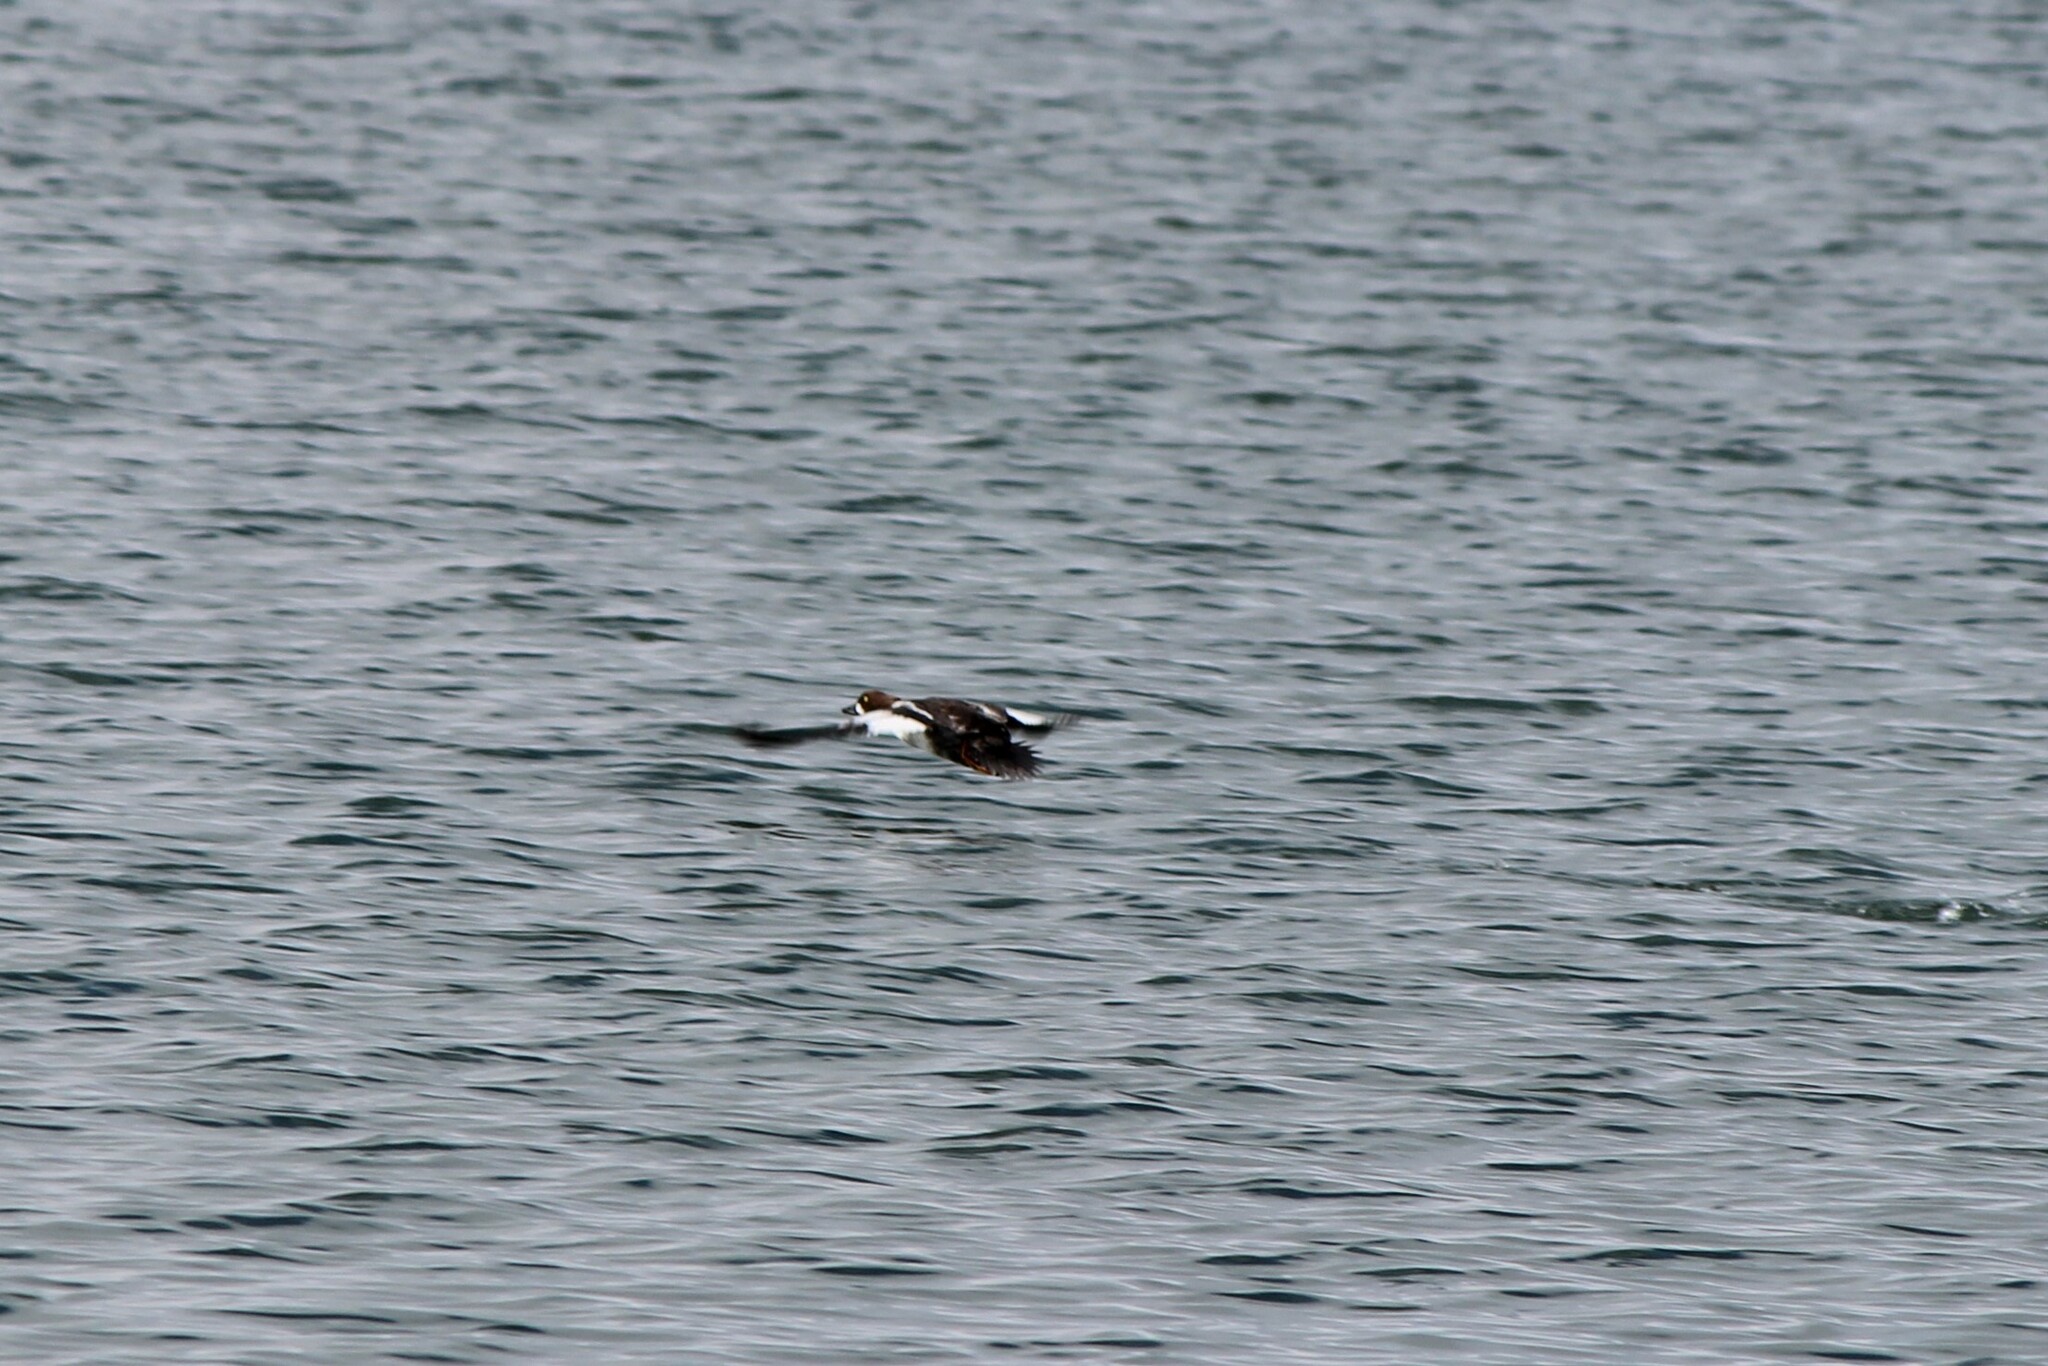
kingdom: Animalia
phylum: Chordata
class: Aves
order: Anseriformes
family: Anatidae
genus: Bucephala
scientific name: Bucephala clangula
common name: Common goldeneye
